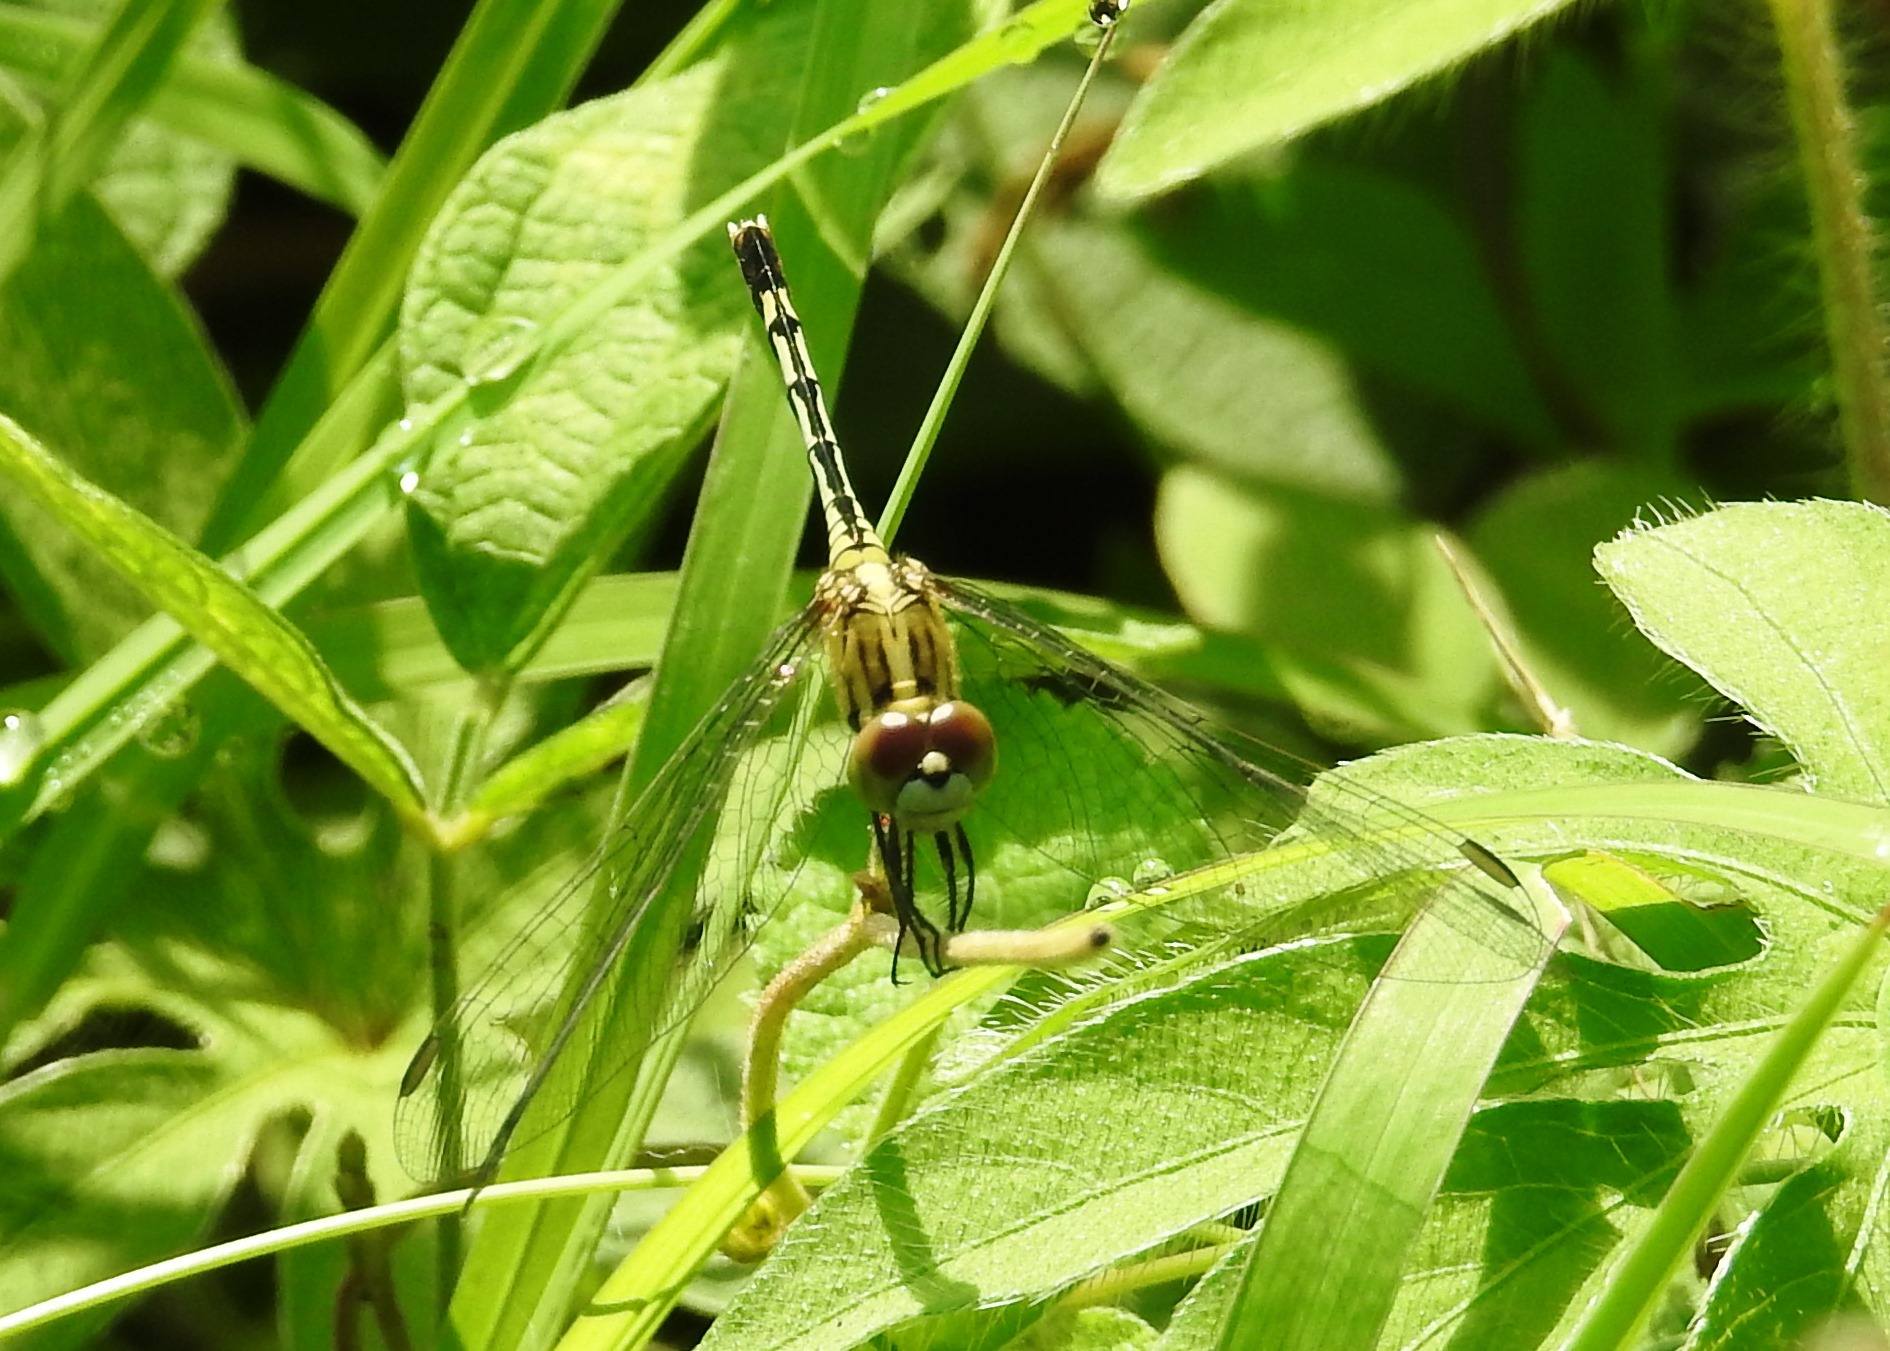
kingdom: Animalia
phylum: Arthropoda
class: Insecta
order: Odonata
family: Libellulidae
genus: Diplacodes
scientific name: Diplacodes trivialis
